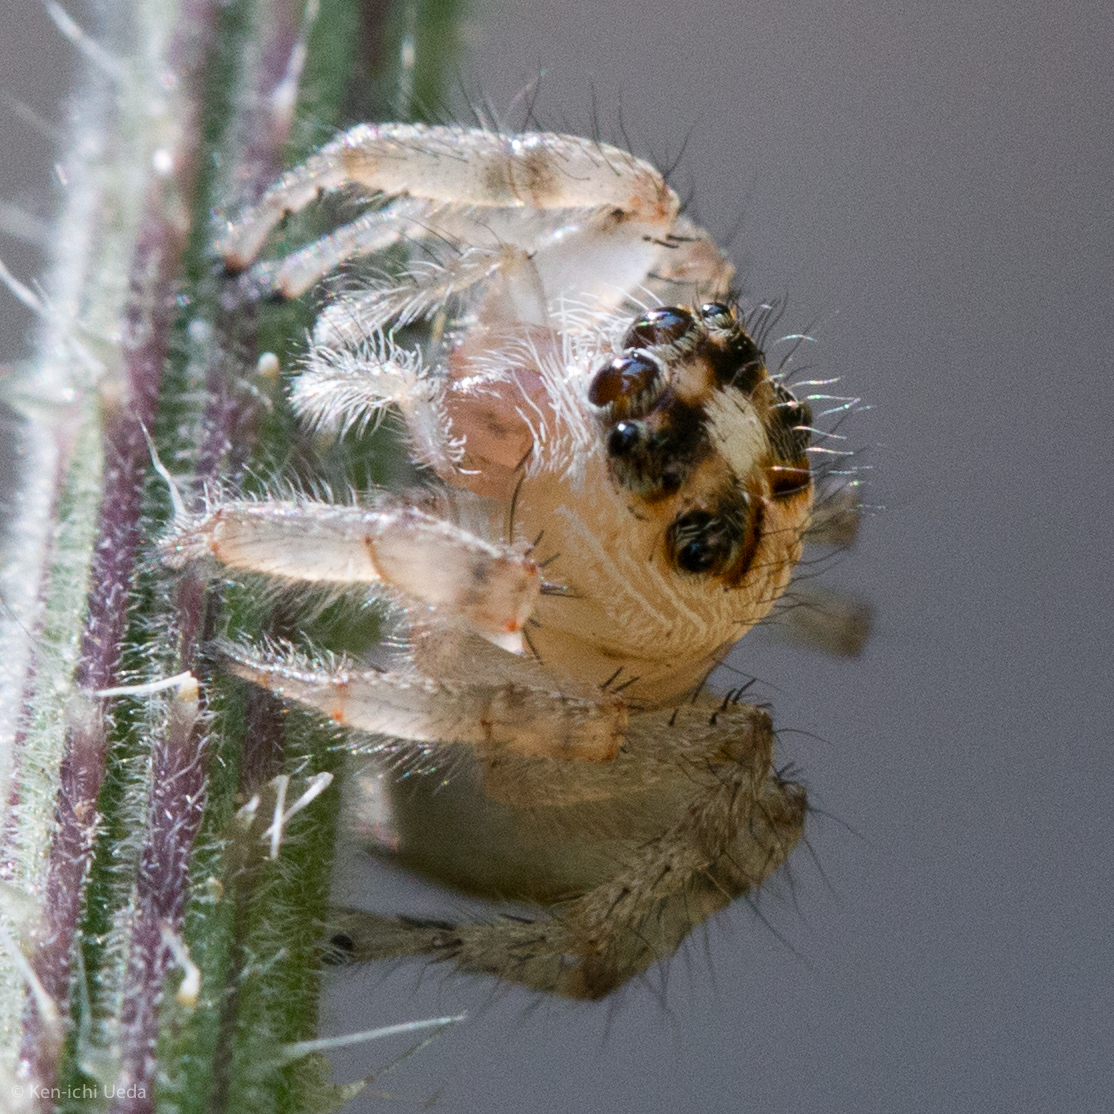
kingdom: Animalia
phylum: Arthropoda
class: Arachnida
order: Araneae
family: Salticidae
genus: Colonus
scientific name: Colonus hesperus
